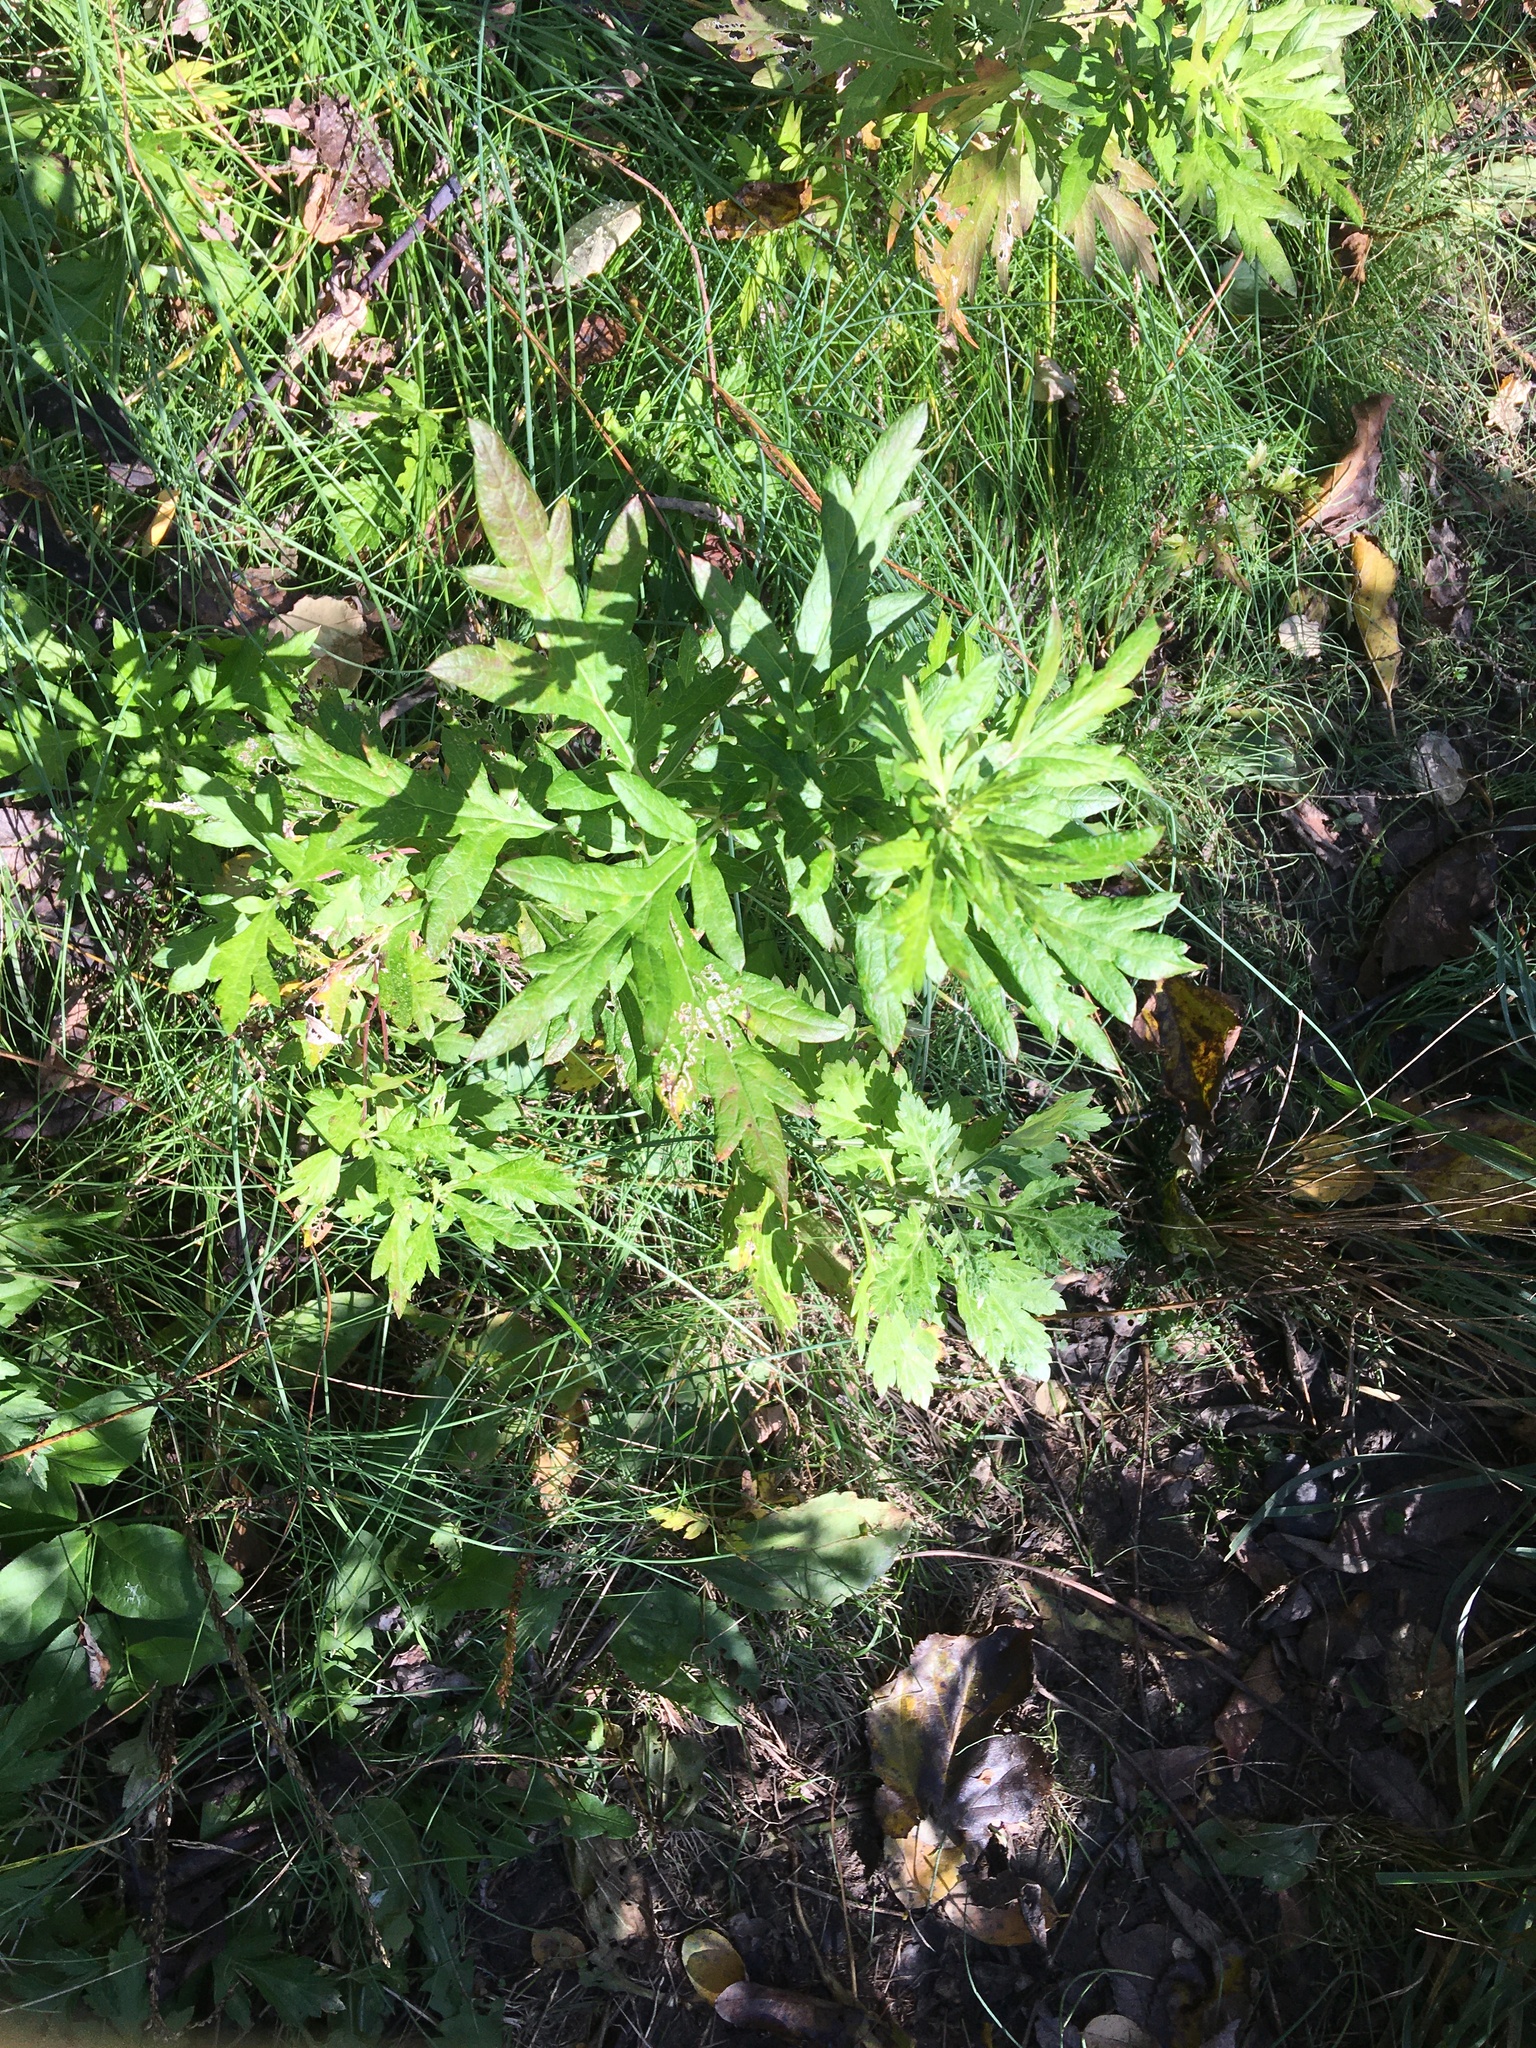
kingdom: Plantae
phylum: Tracheophyta
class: Magnoliopsida
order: Asterales
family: Asteraceae
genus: Artemisia
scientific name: Artemisia vulgaris
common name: Mugwort
